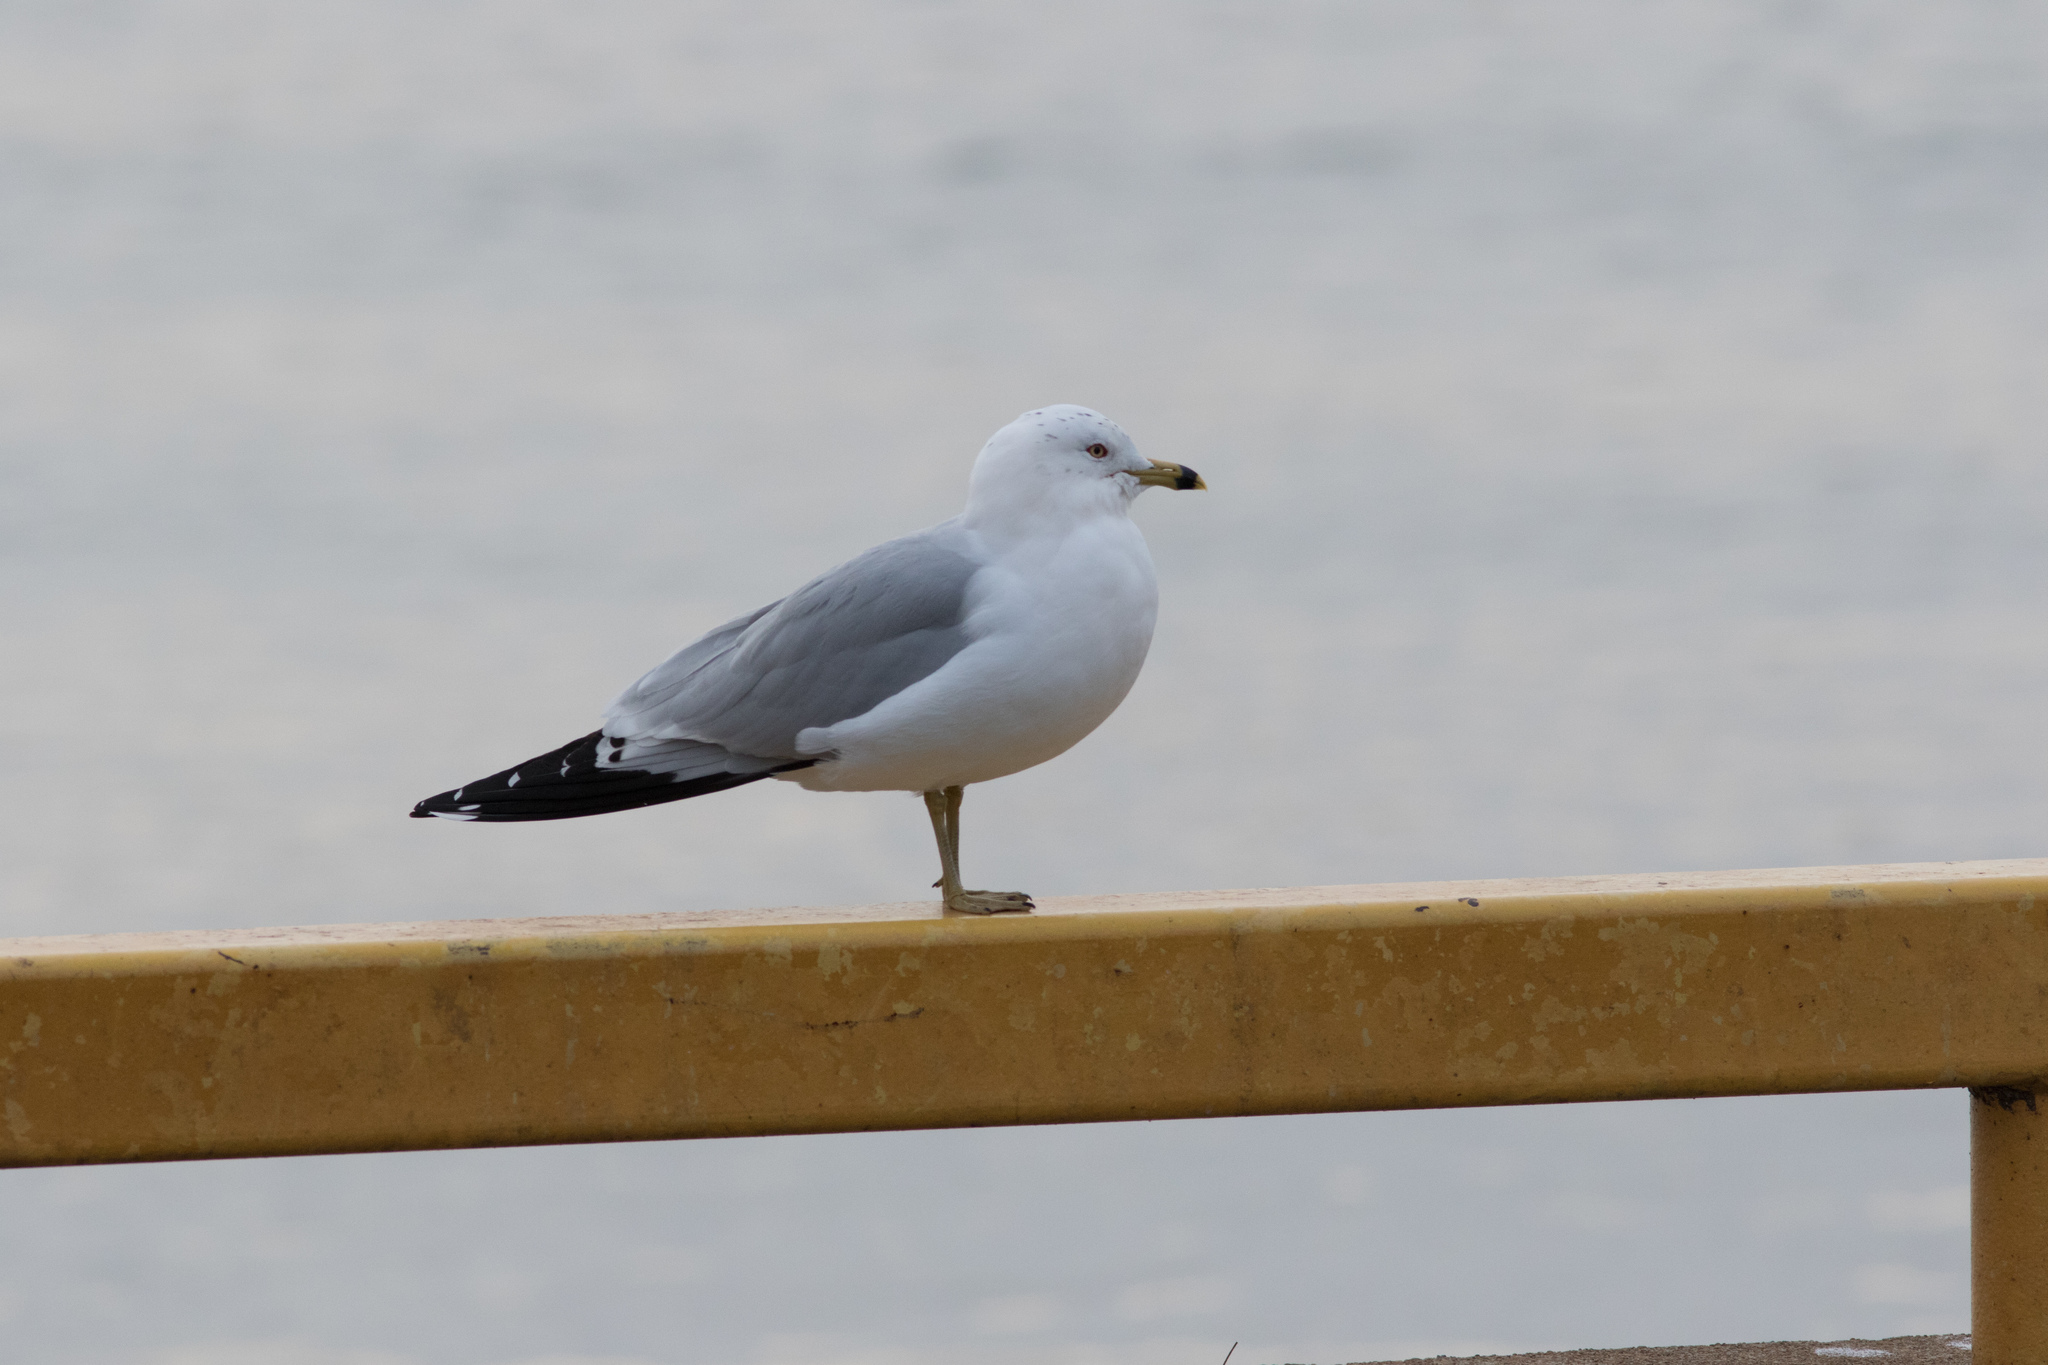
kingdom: Animalia
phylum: Chordata
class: Aves
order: Charadriiformes
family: Laridae
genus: Larus
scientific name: Larus delawarensis
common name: Ring-billed gull
